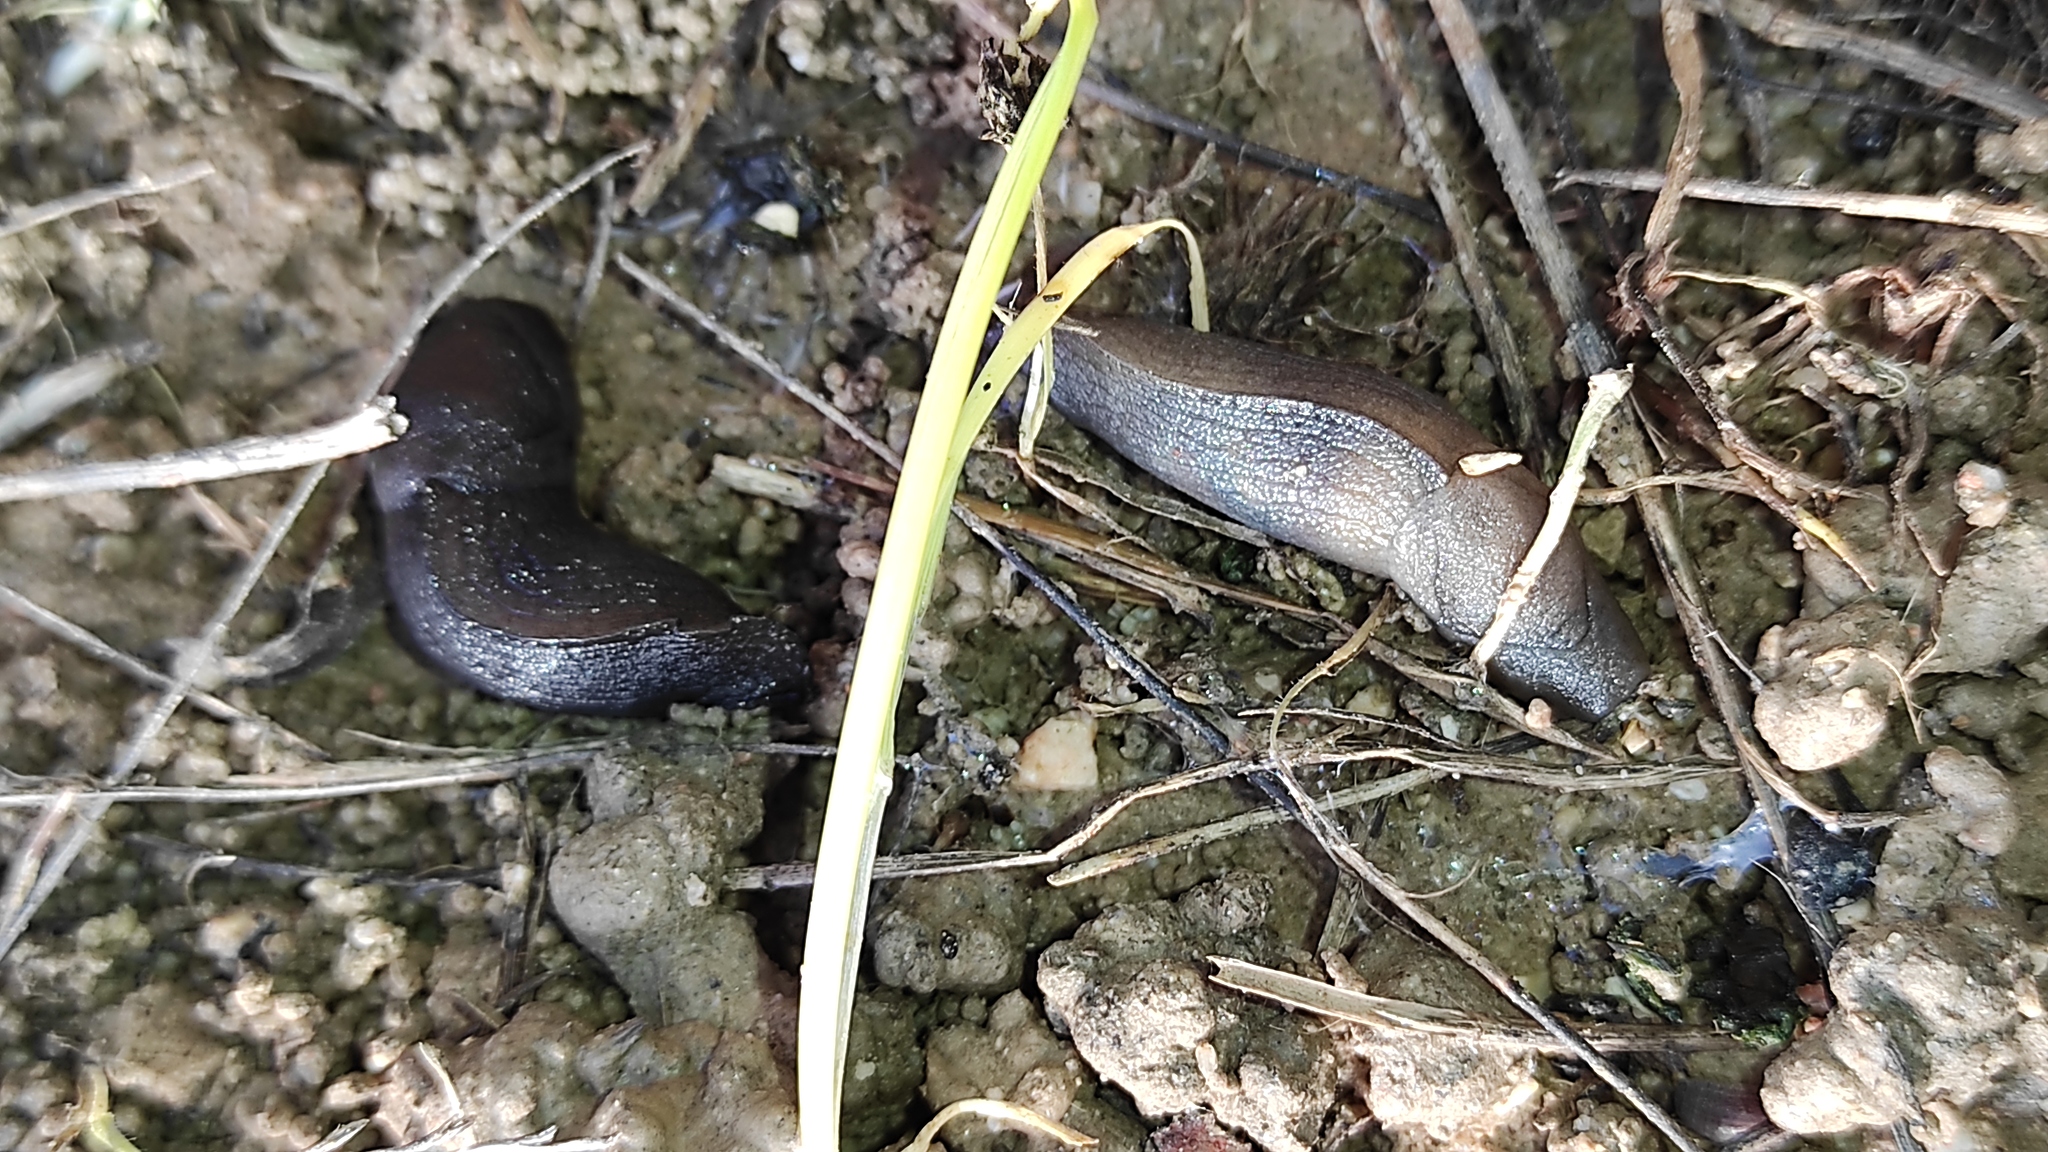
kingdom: Animalia
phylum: Mollusca
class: Gastropoda
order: Stylommatophora
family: Milacidae
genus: Milax
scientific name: Milax gagates
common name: Greenhouse slug
